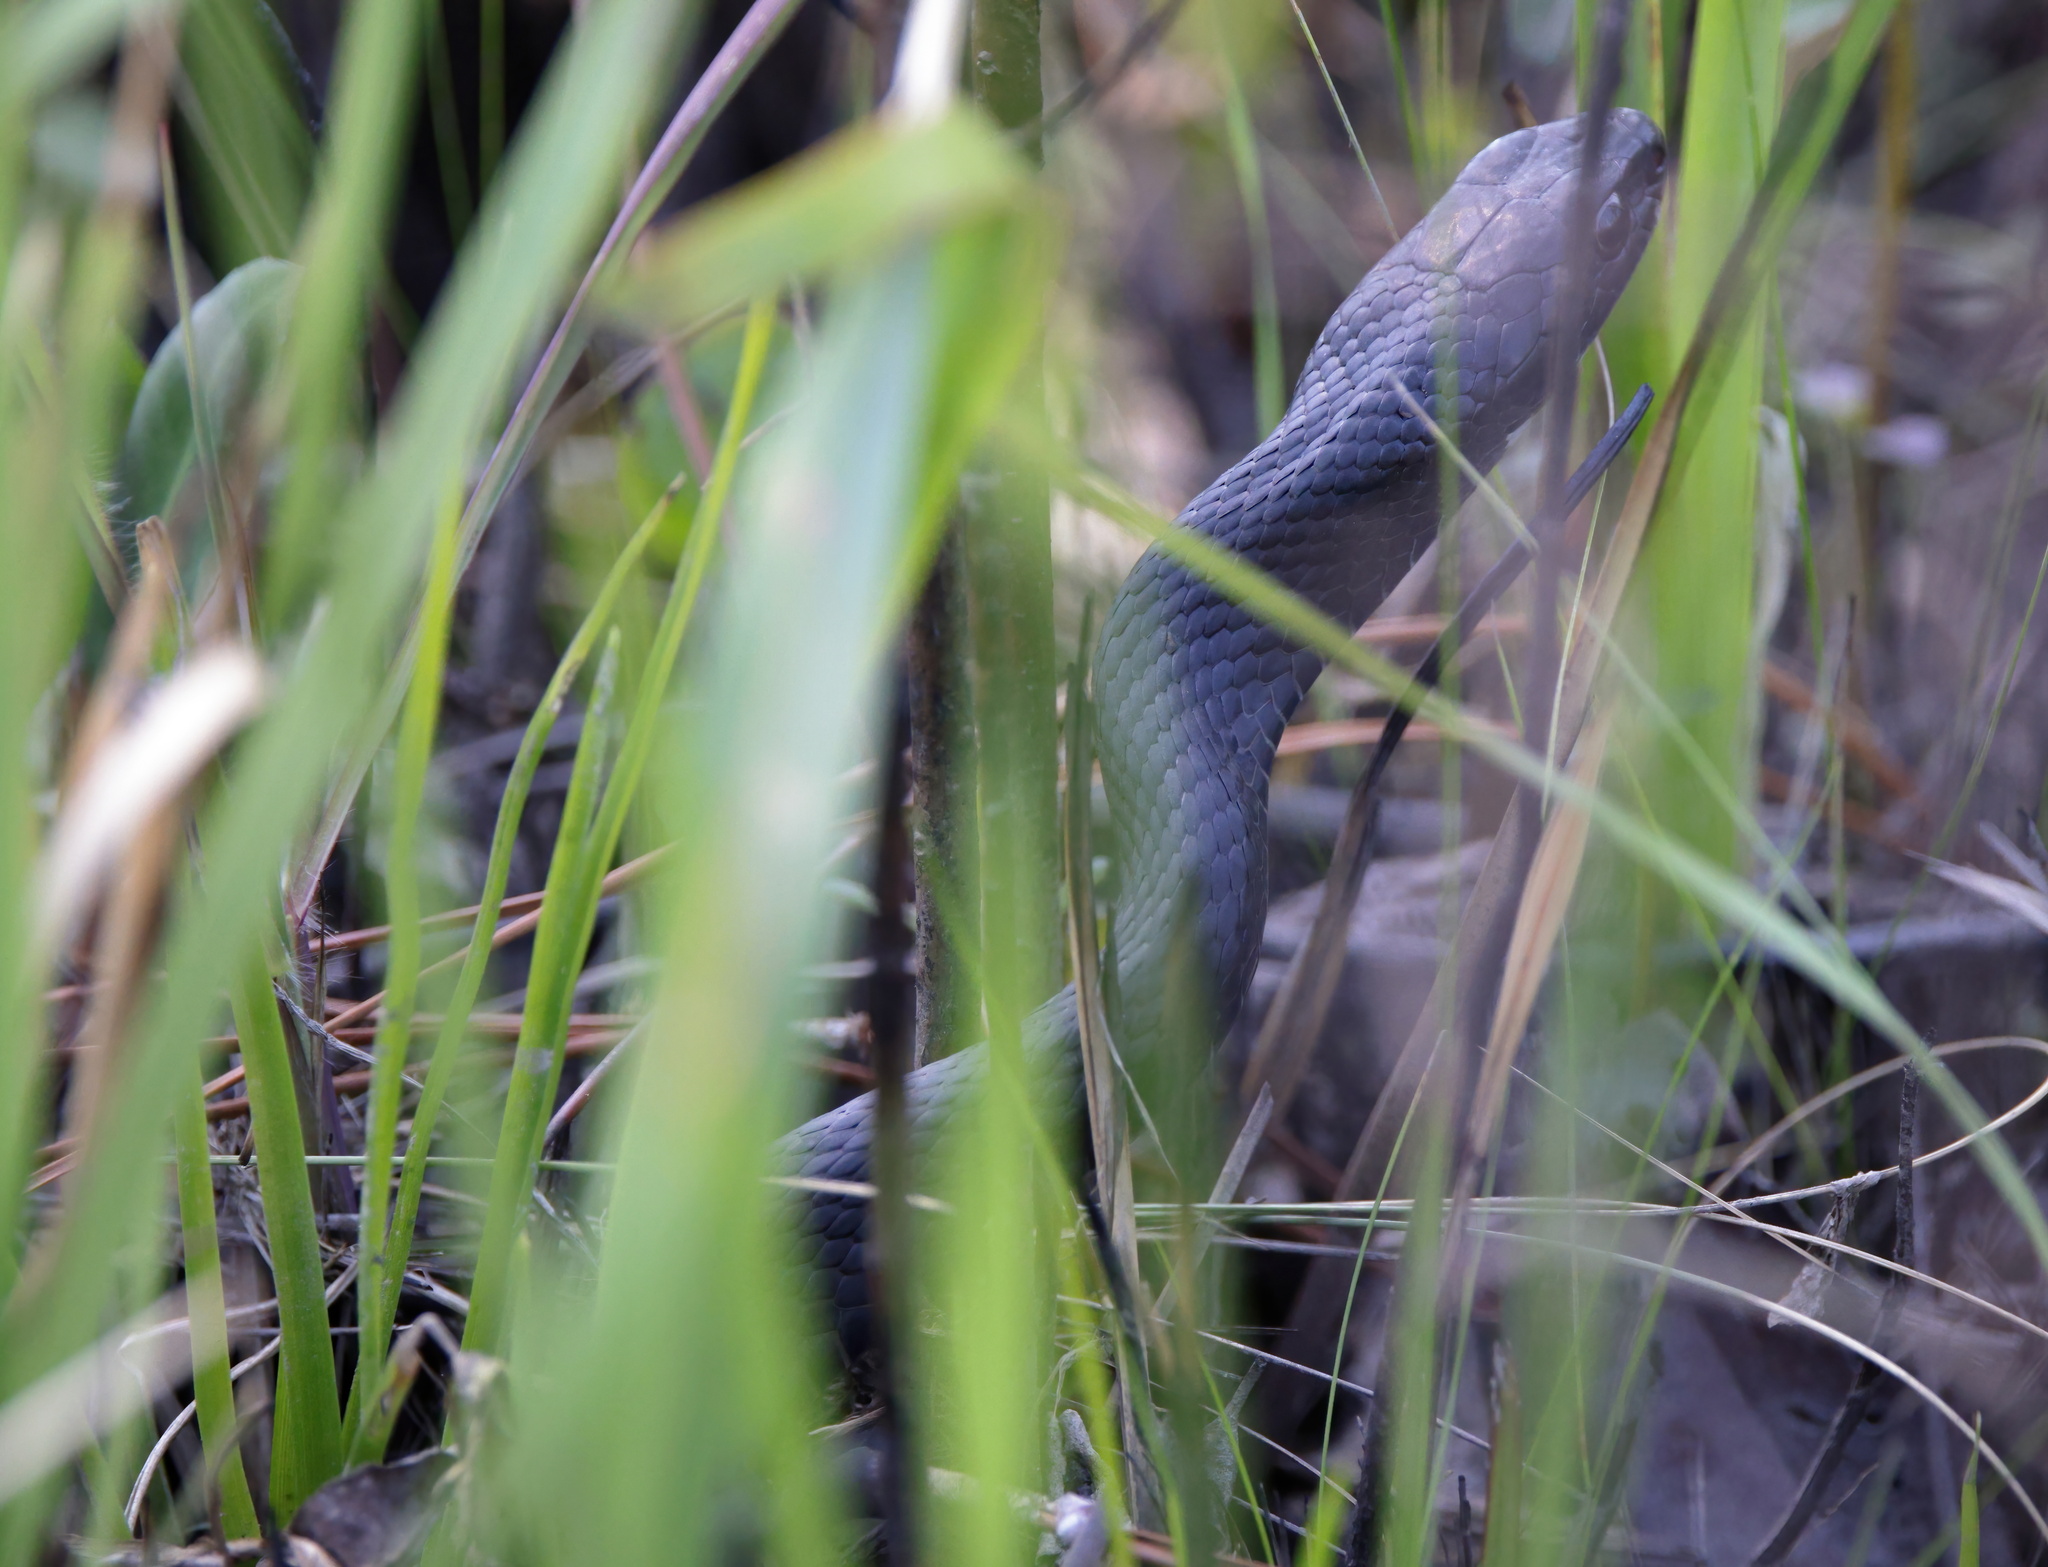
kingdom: Animalia
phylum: Chordata
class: Squamata
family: Colubridae
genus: Coluber
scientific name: Coluber constrictor
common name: Eastern racer
